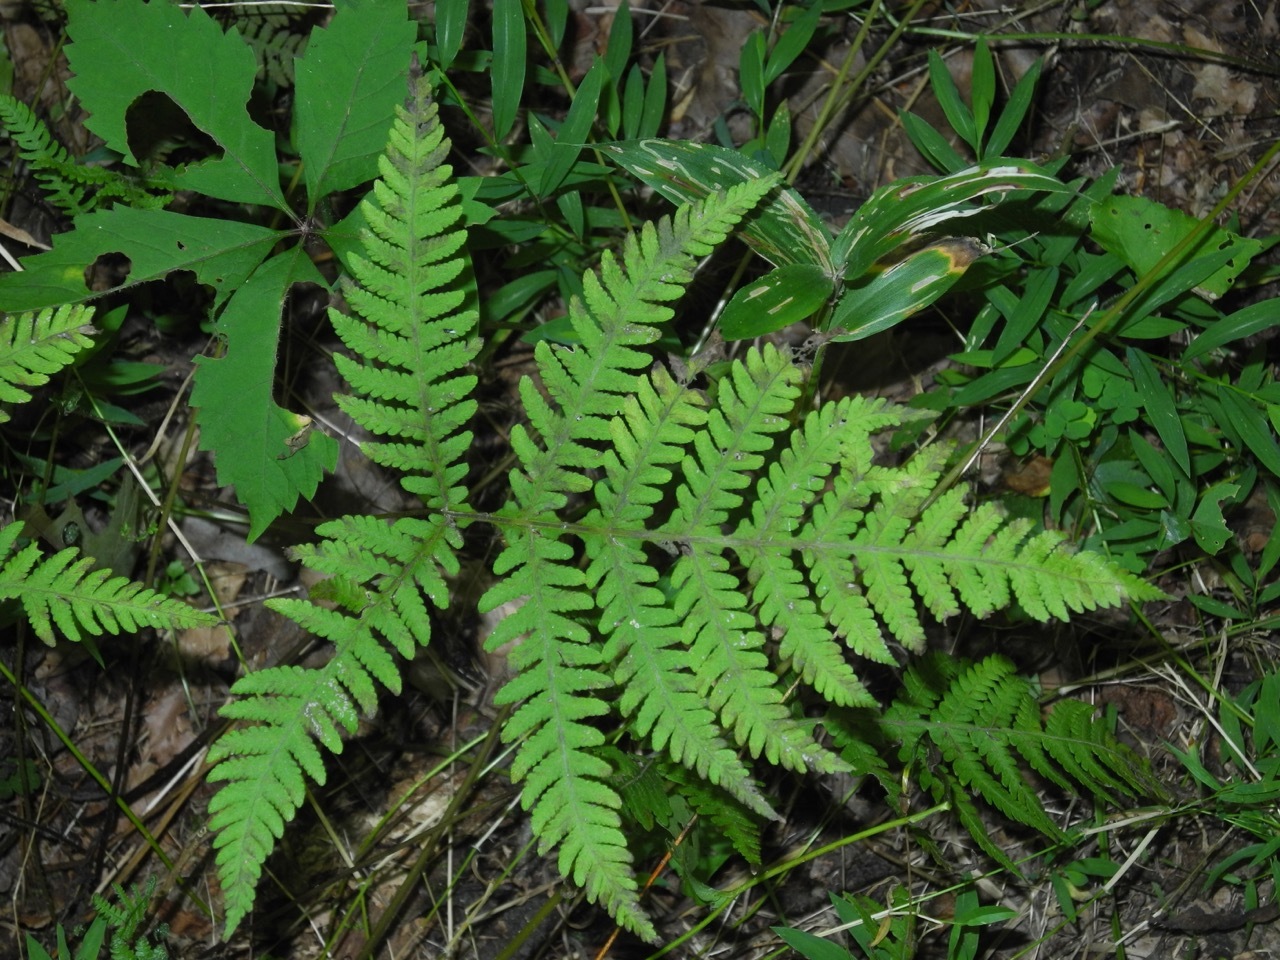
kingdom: Plantae
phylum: Tracheophyta
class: Polypodiopsida
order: Polypodiales
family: Thelypteridaceae
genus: Phegopteris
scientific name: Phegopteris hexagonoptera
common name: Broad beech fern
